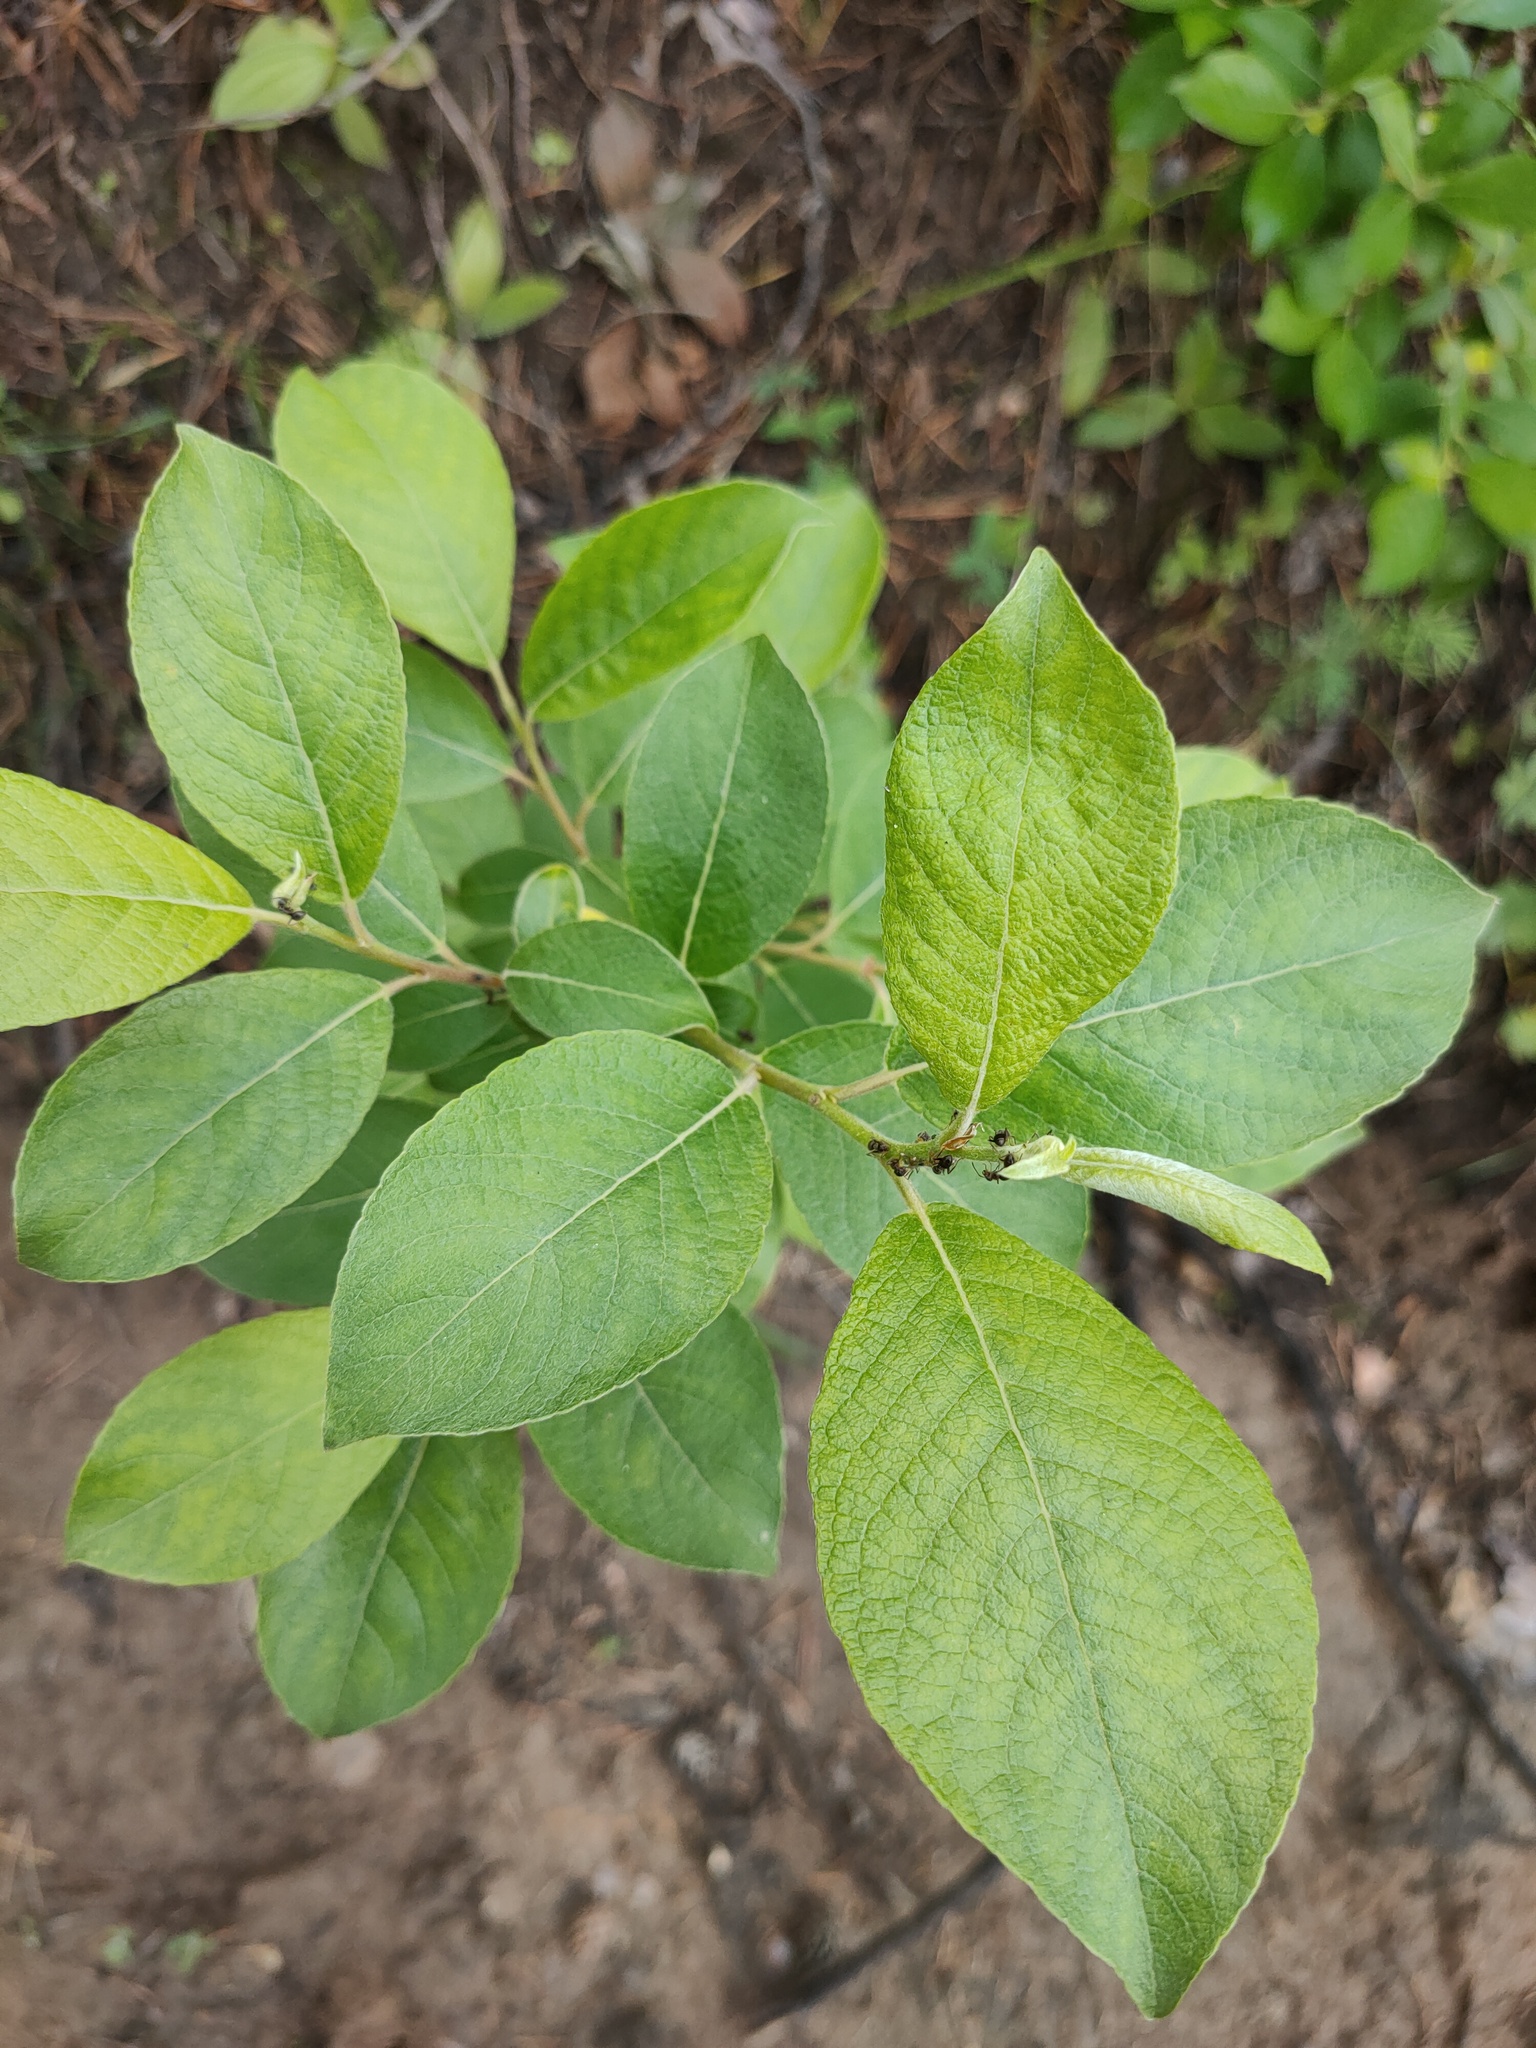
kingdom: Plantae
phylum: Tracheophyta
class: Magnoliopsida
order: Malpighiales
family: Salicaceae
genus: Salix
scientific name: Salix caprea
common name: Goat willow
